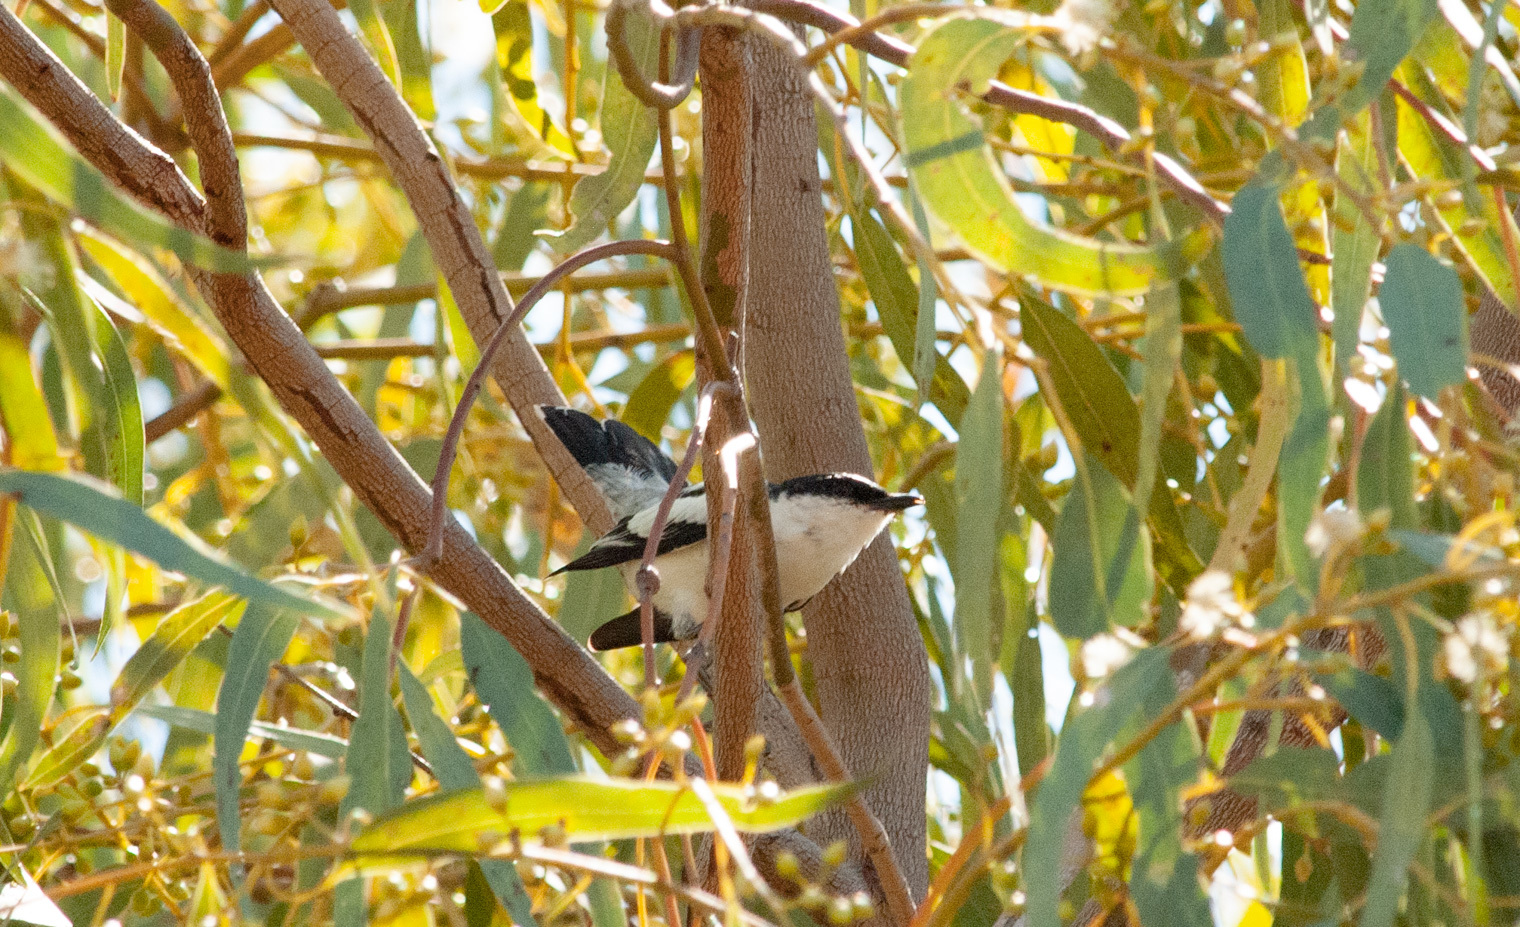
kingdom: Animalia
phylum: Chordata
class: Aves
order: Passeriformes
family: Campephagidae
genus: Lalage
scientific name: Lalage tricolor
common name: White-winged triller
